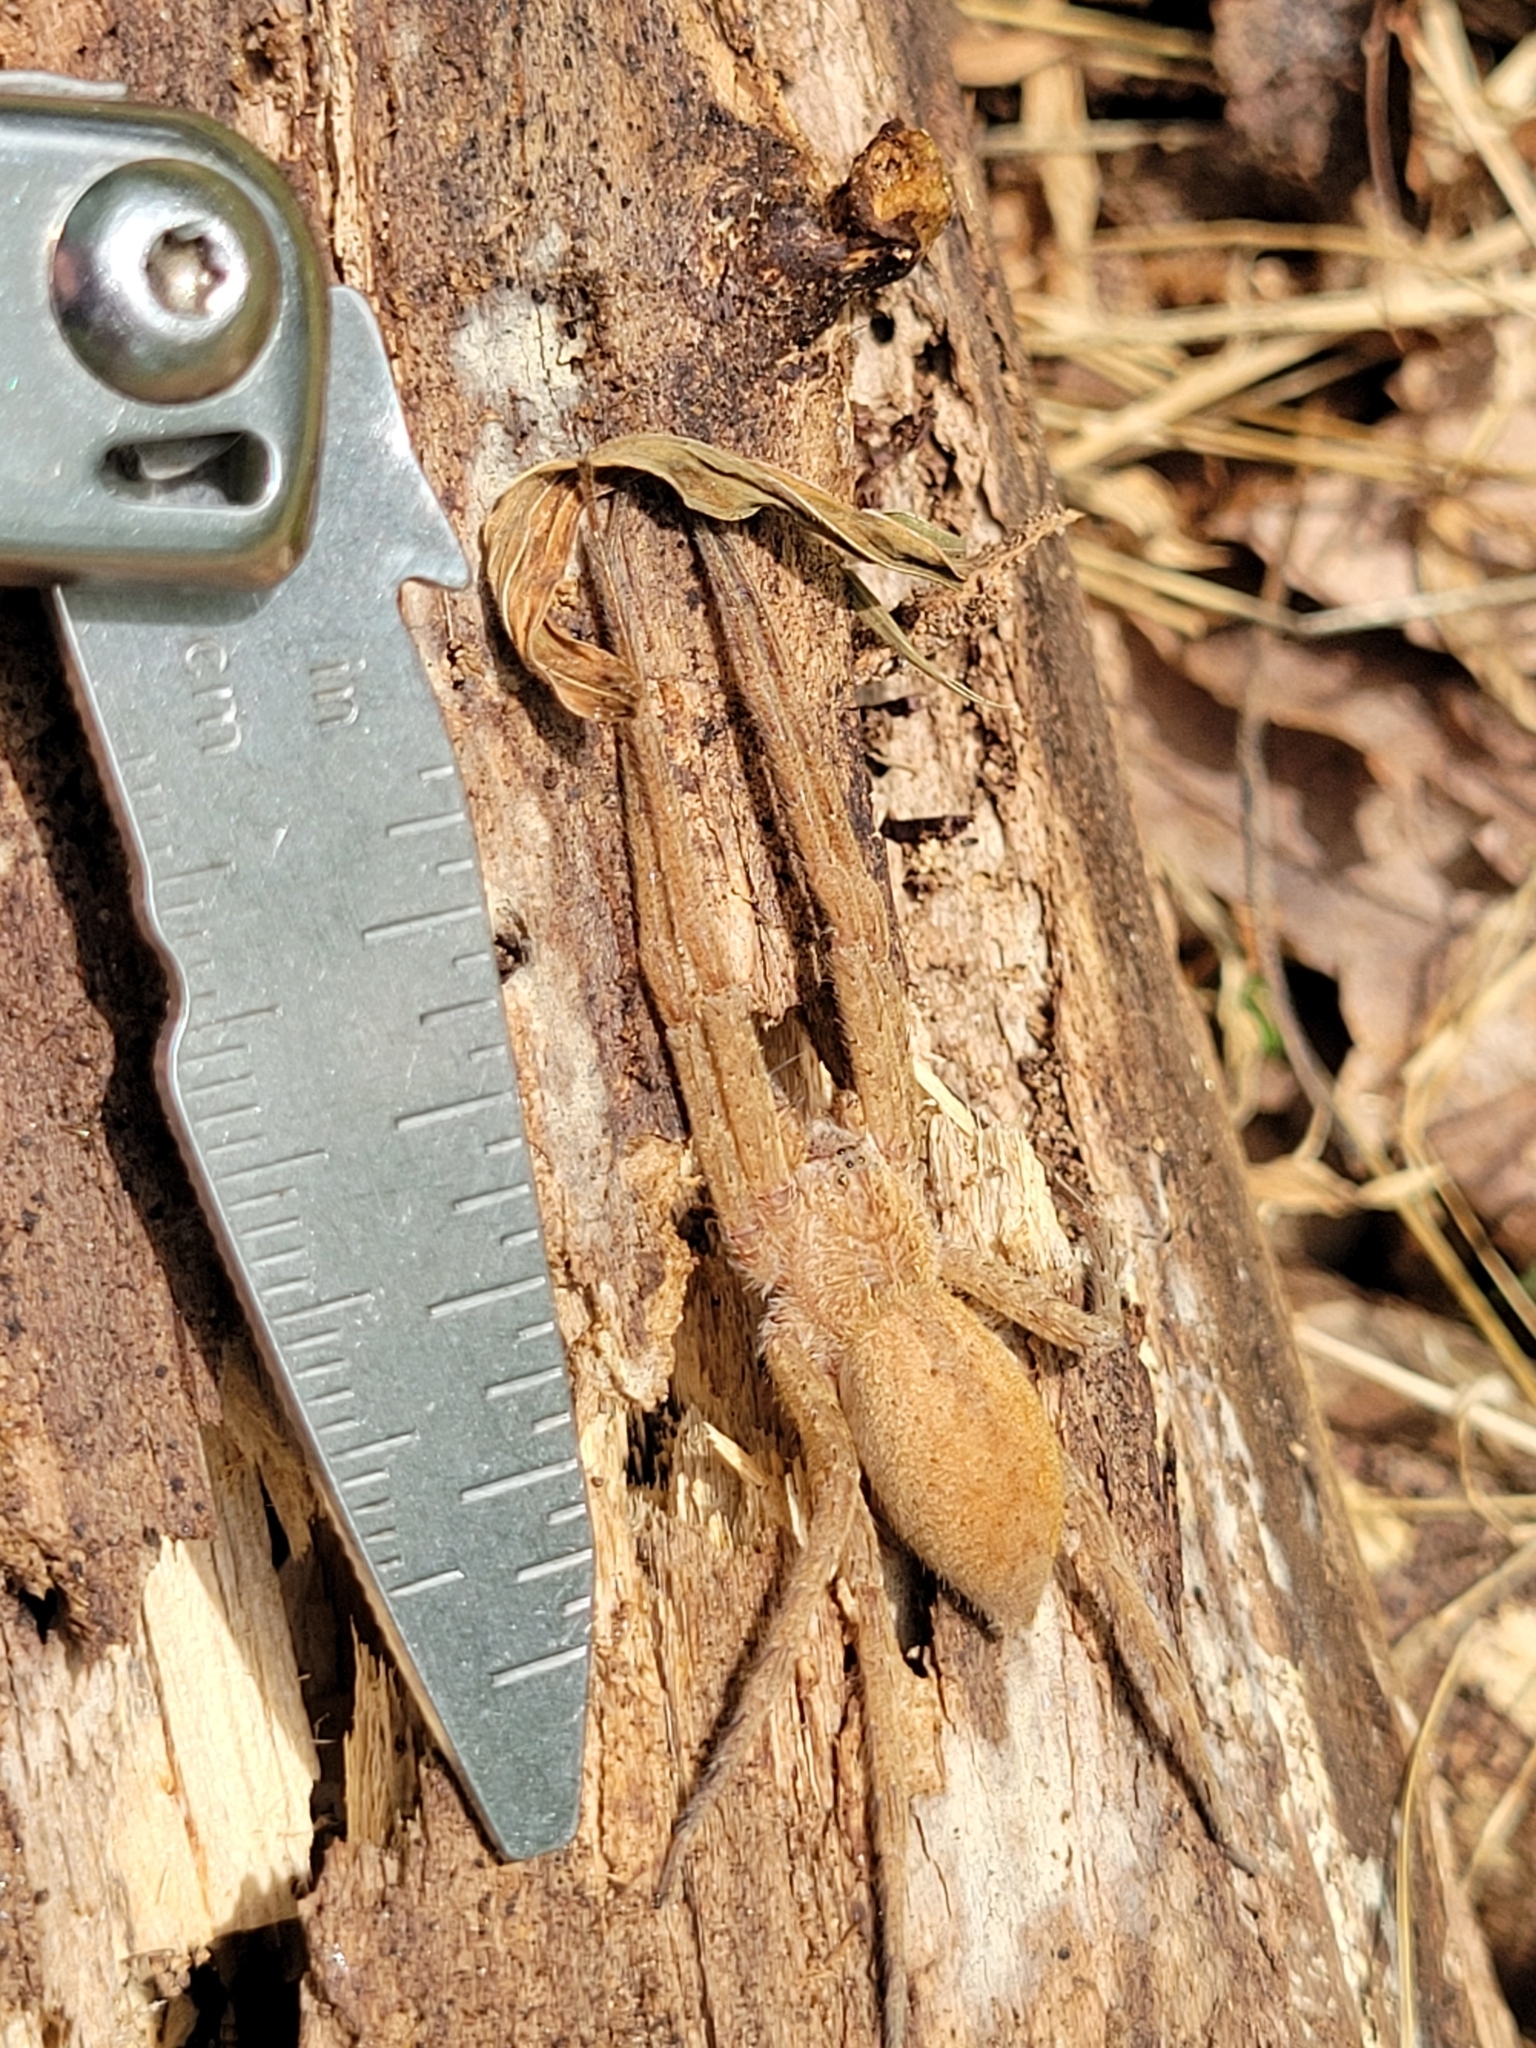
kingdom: Animalia
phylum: Arthropoda
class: Arachnida
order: Araneae
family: Pisauridae
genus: Pisaurina
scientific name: Pisaurina mira
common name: American nursery web spider
